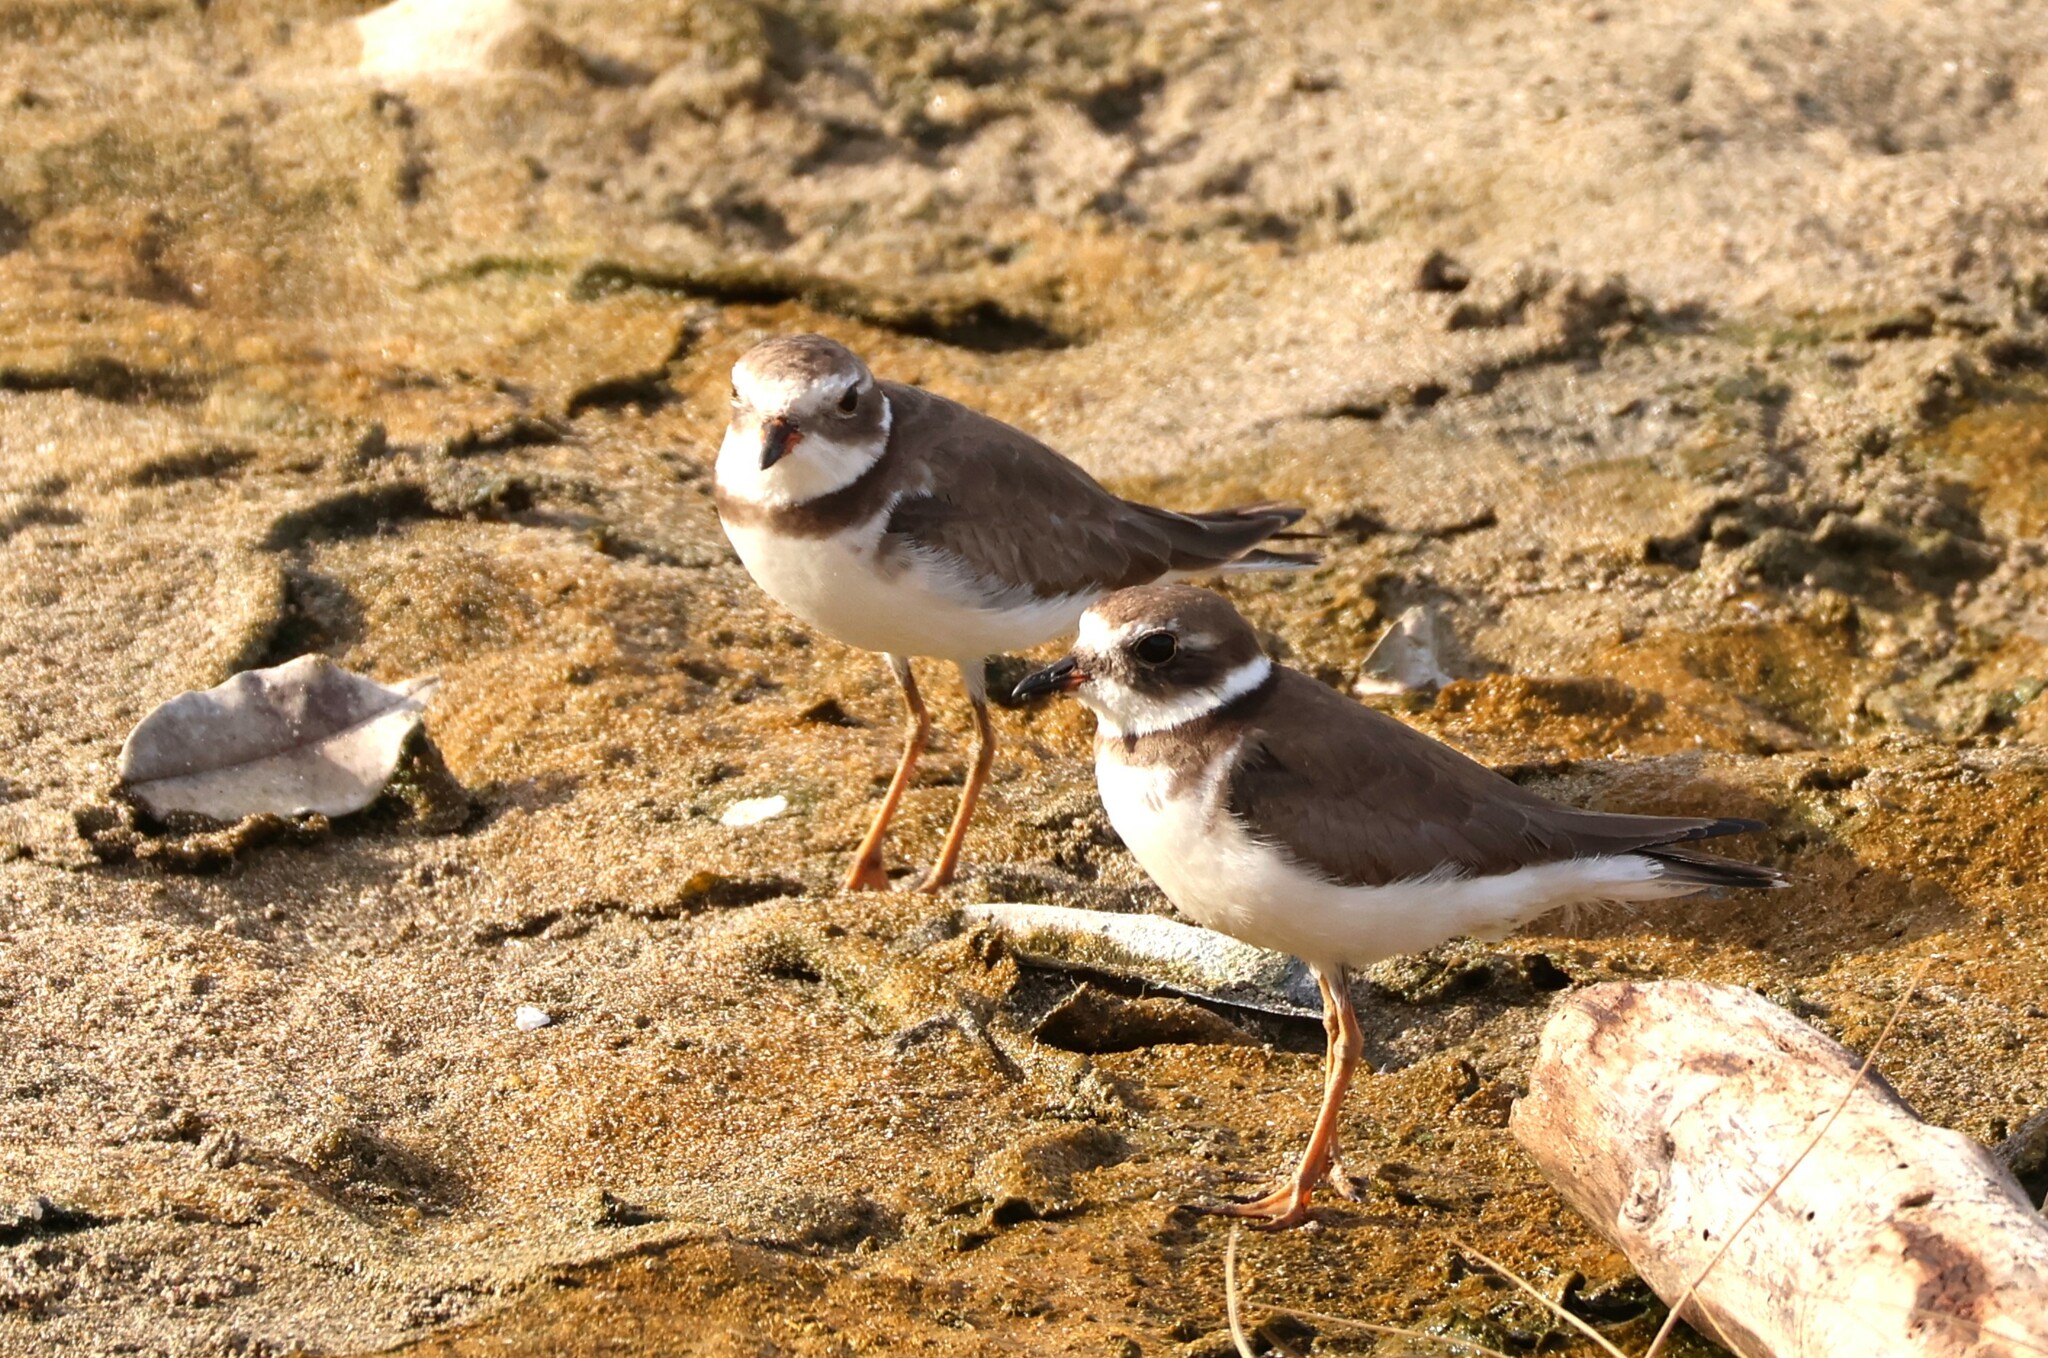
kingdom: Animalia
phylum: Chordata
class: Aves
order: Charadriiformes
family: Charadriidae
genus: Charadrius
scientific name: Charadrius semipalmatus
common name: Semipalmated plover
